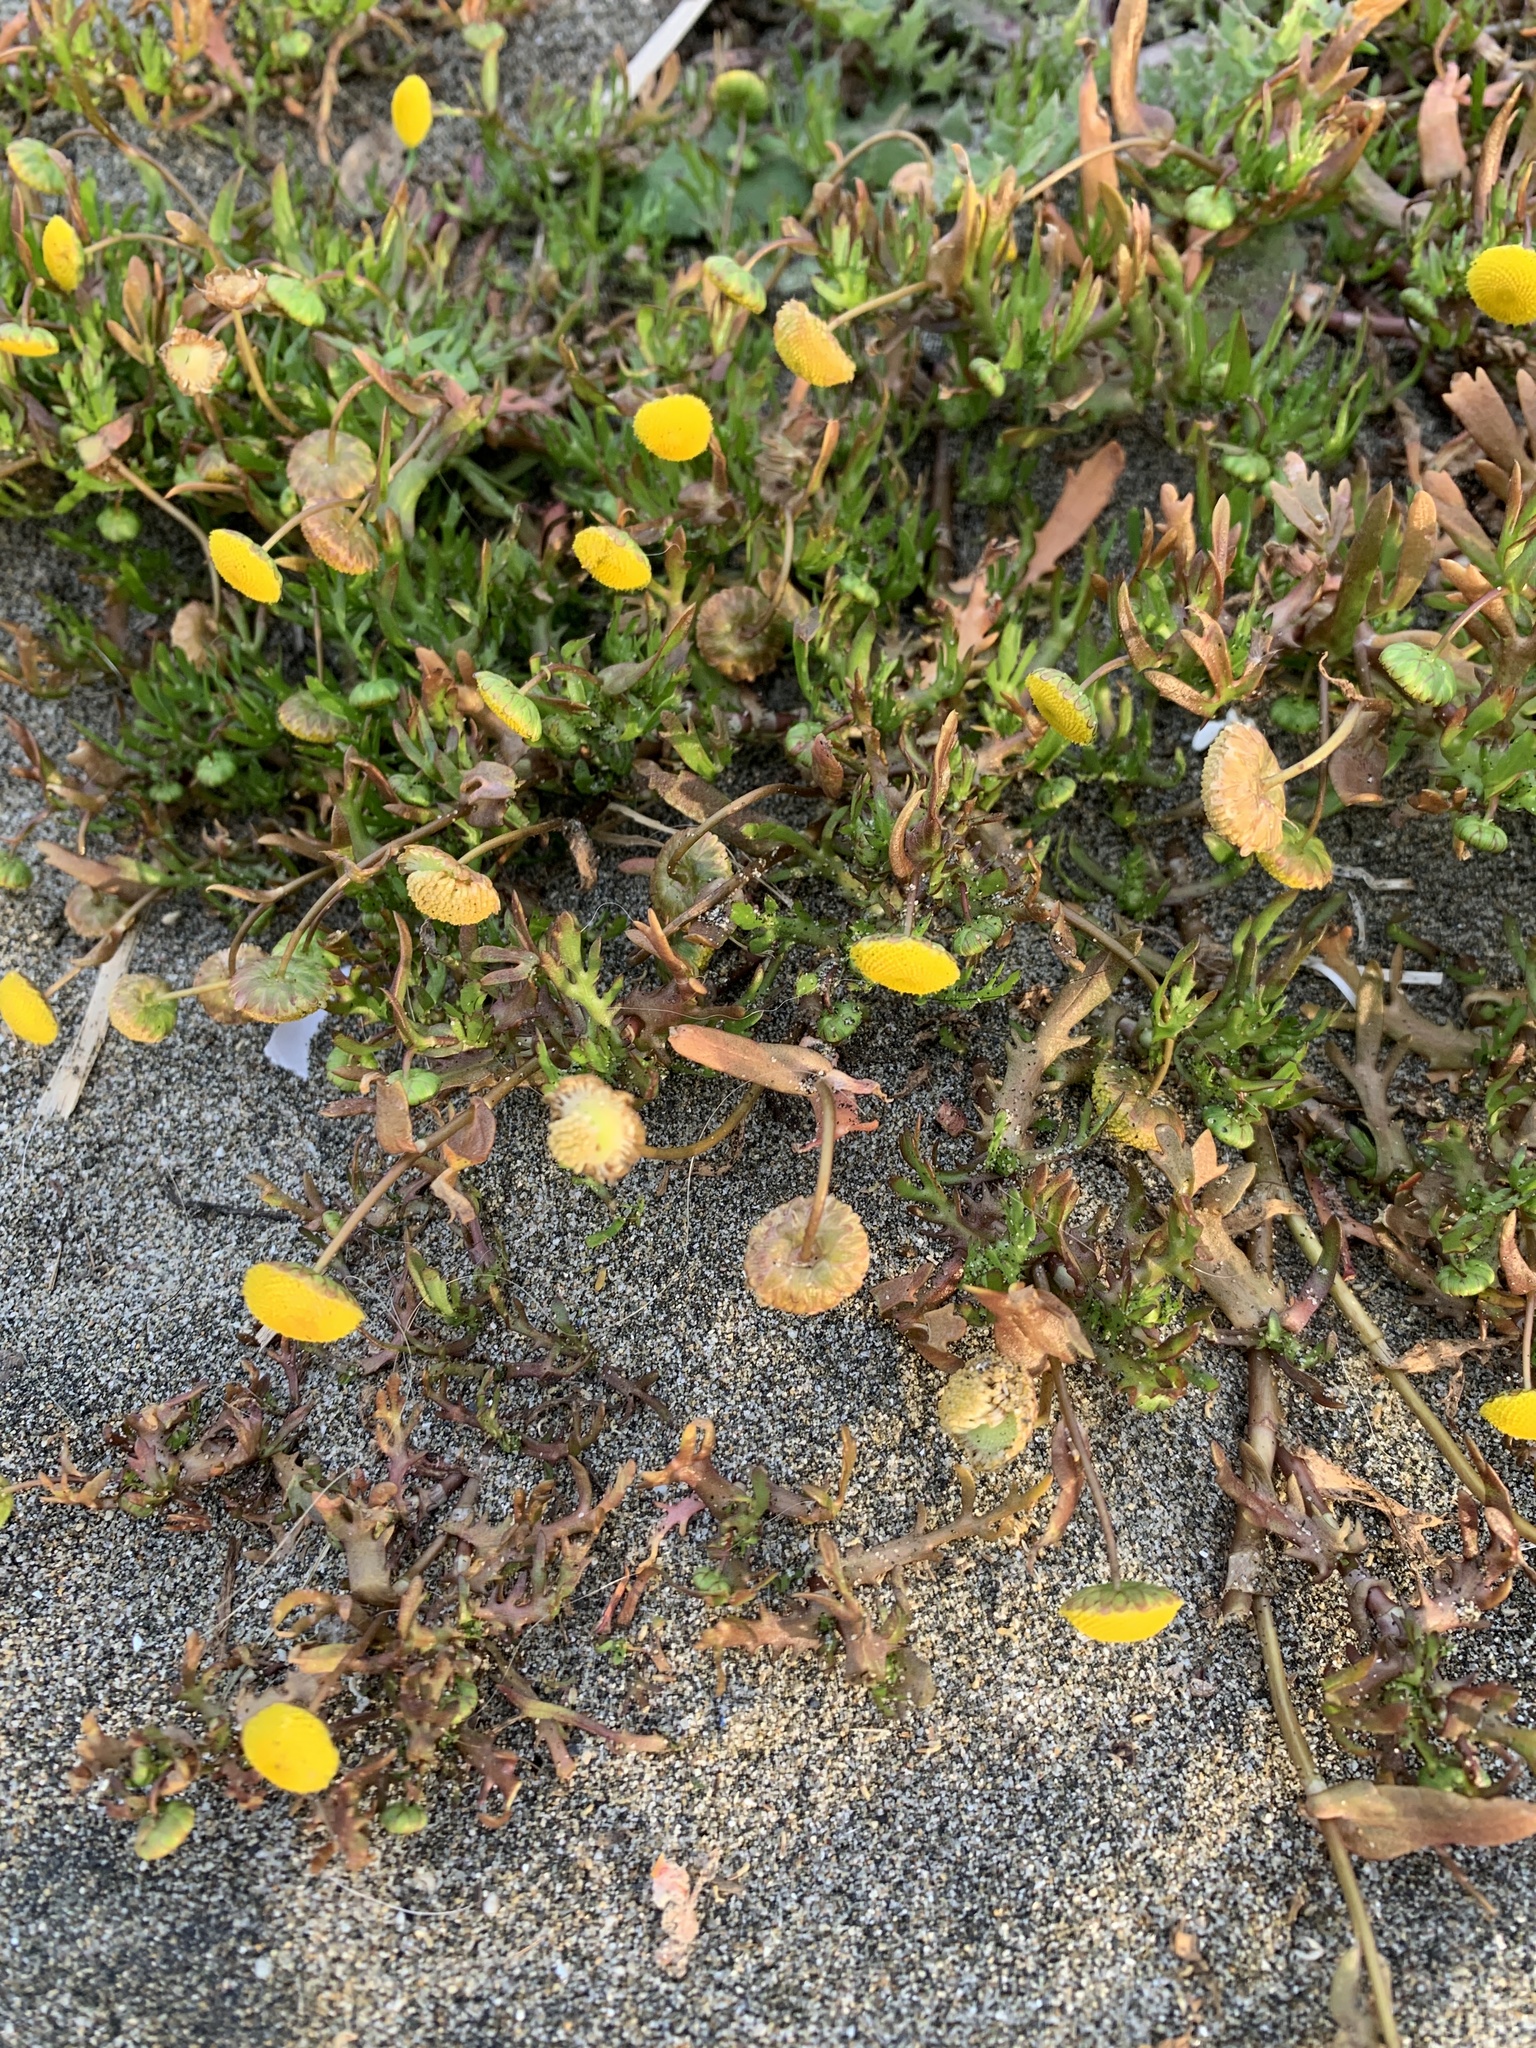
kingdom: Plantae
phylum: Tracheophyta
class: Magnoliopsida
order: Asterales
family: Asteraceae
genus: Cotula
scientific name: Cotula coronopifolia
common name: Buttonweed
